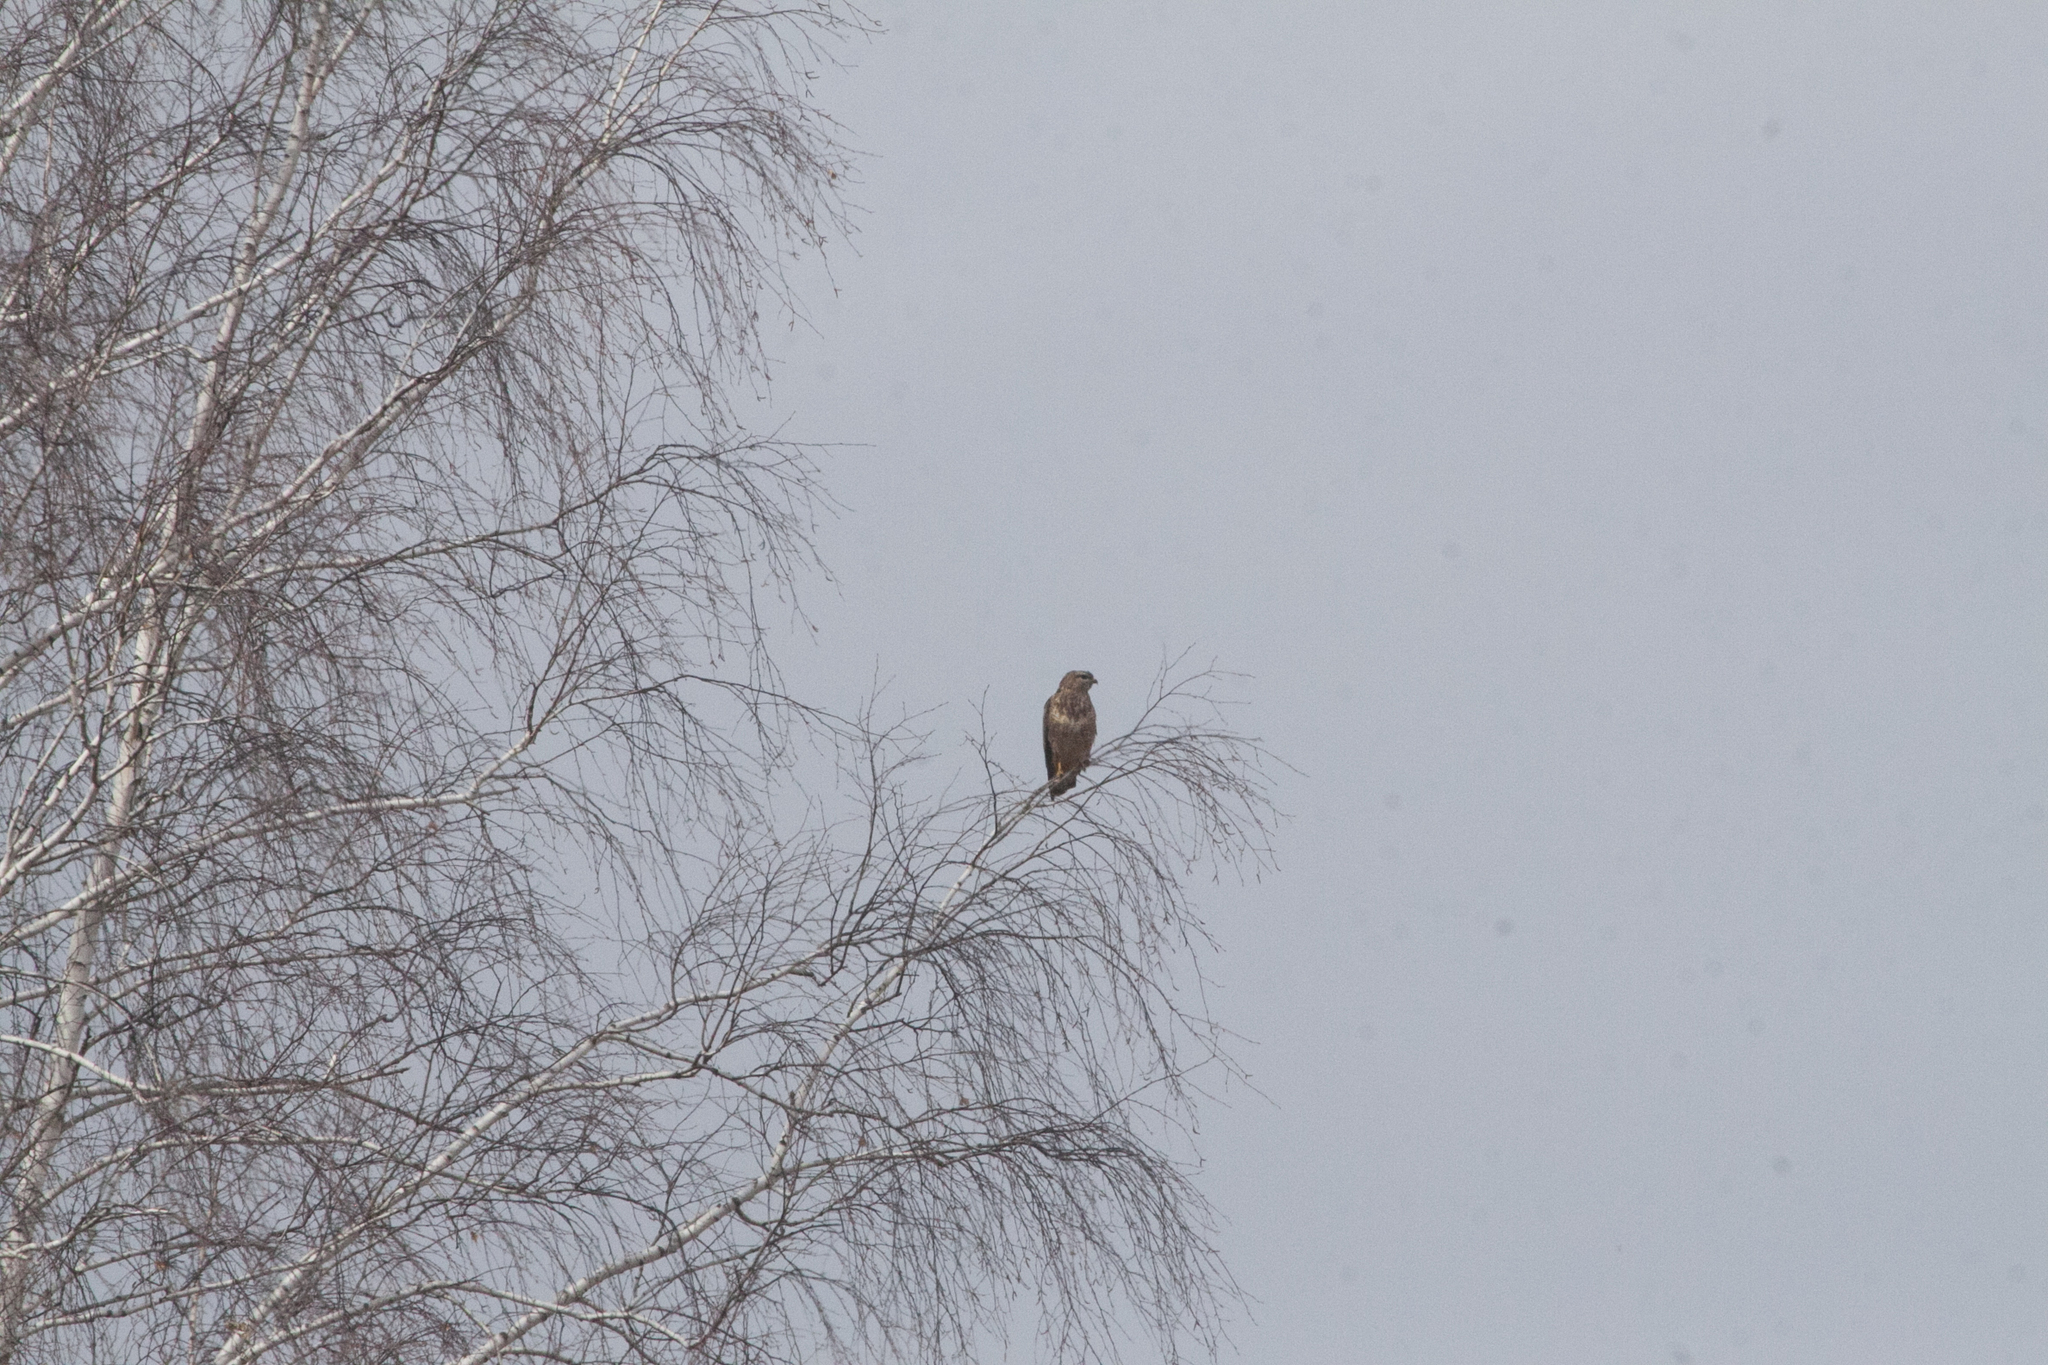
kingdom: Animalia
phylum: Chordata
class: Aves
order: Accipitriformes
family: Accipitridae
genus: Buteo
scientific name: Buteo buteo
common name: Common buzzard
